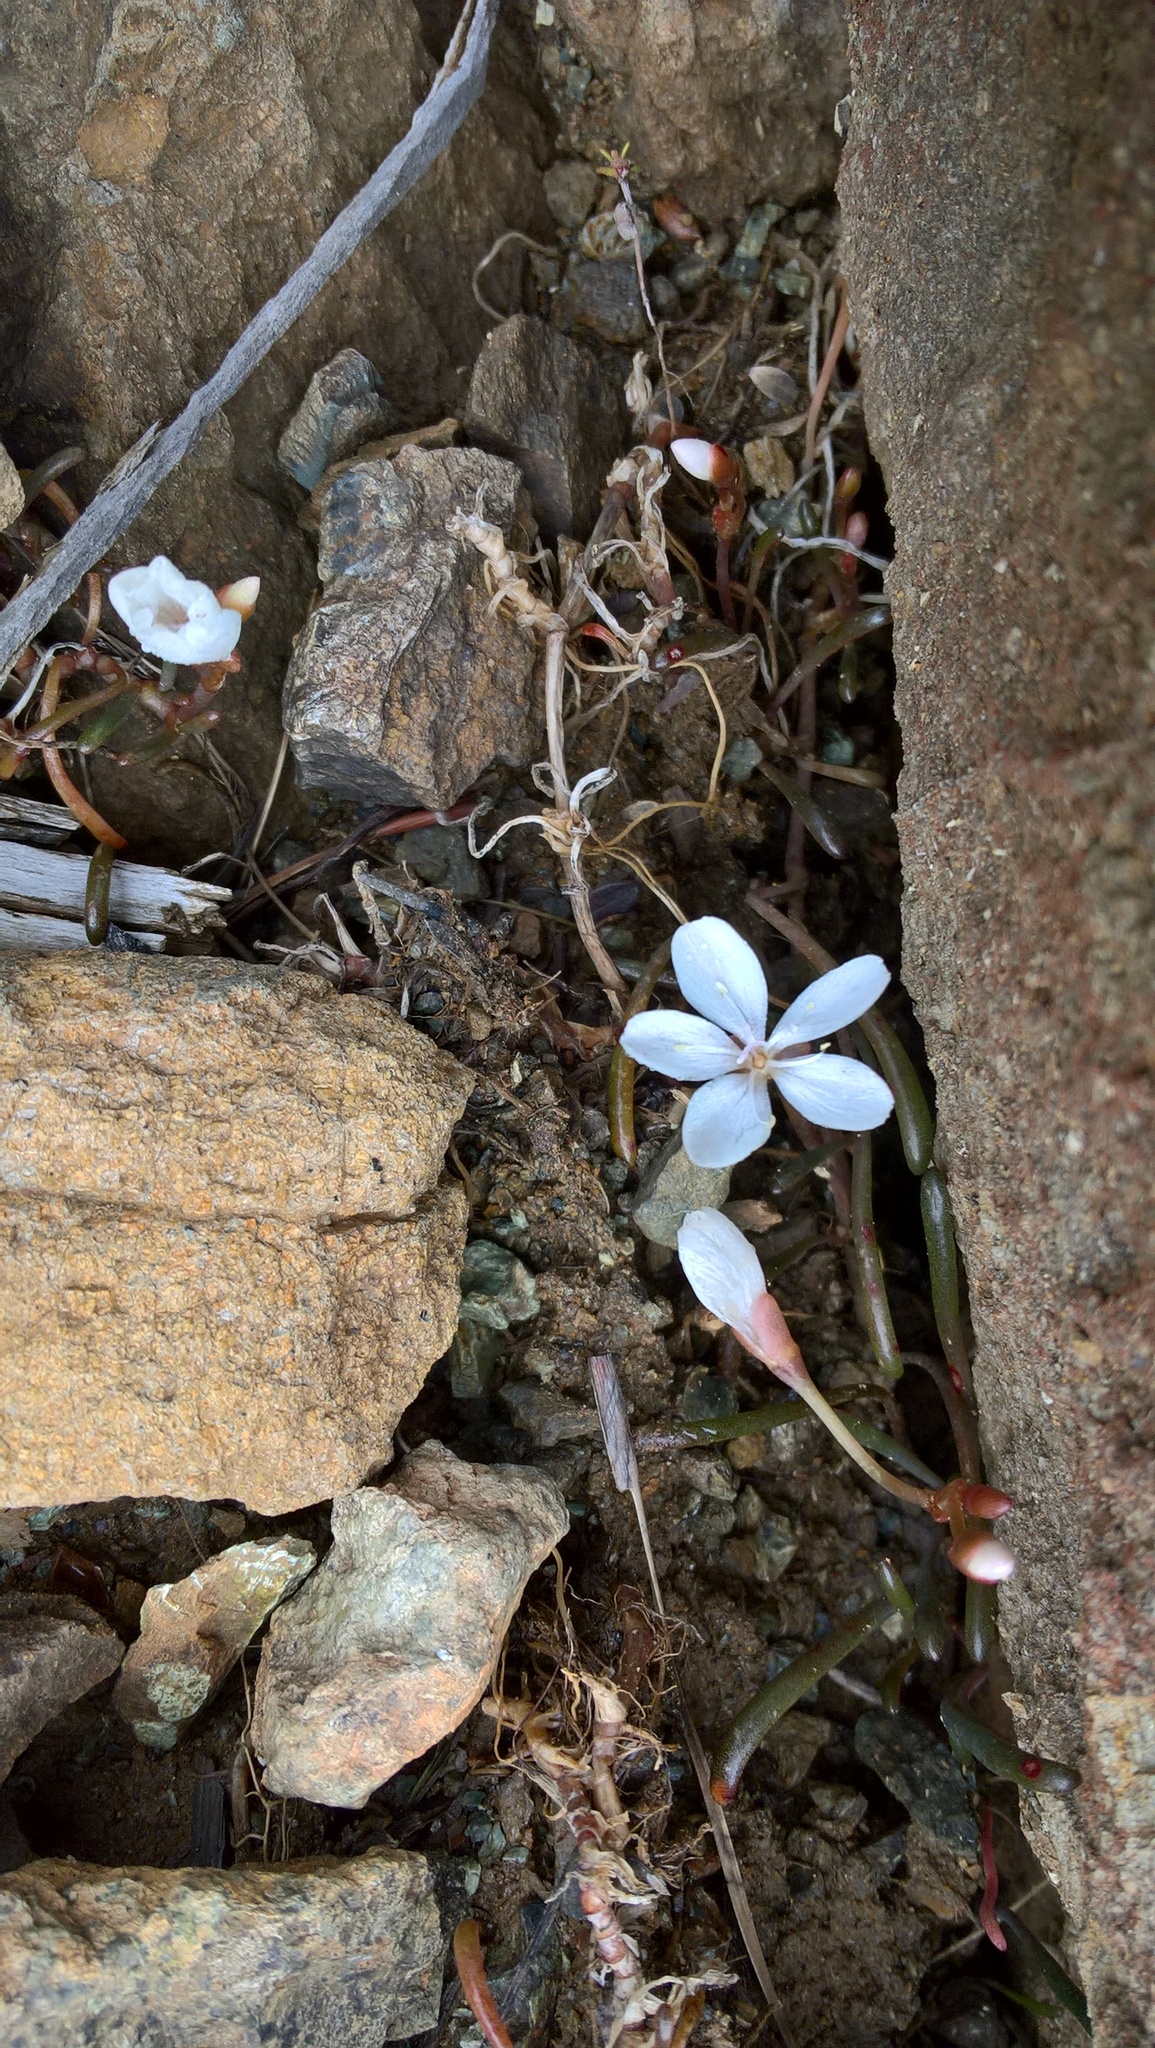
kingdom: Plantae
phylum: Tracheophyta
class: Magnoliopsida
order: Caryophyllales
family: Montiaceae
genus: Montia
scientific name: Montia racemosa
